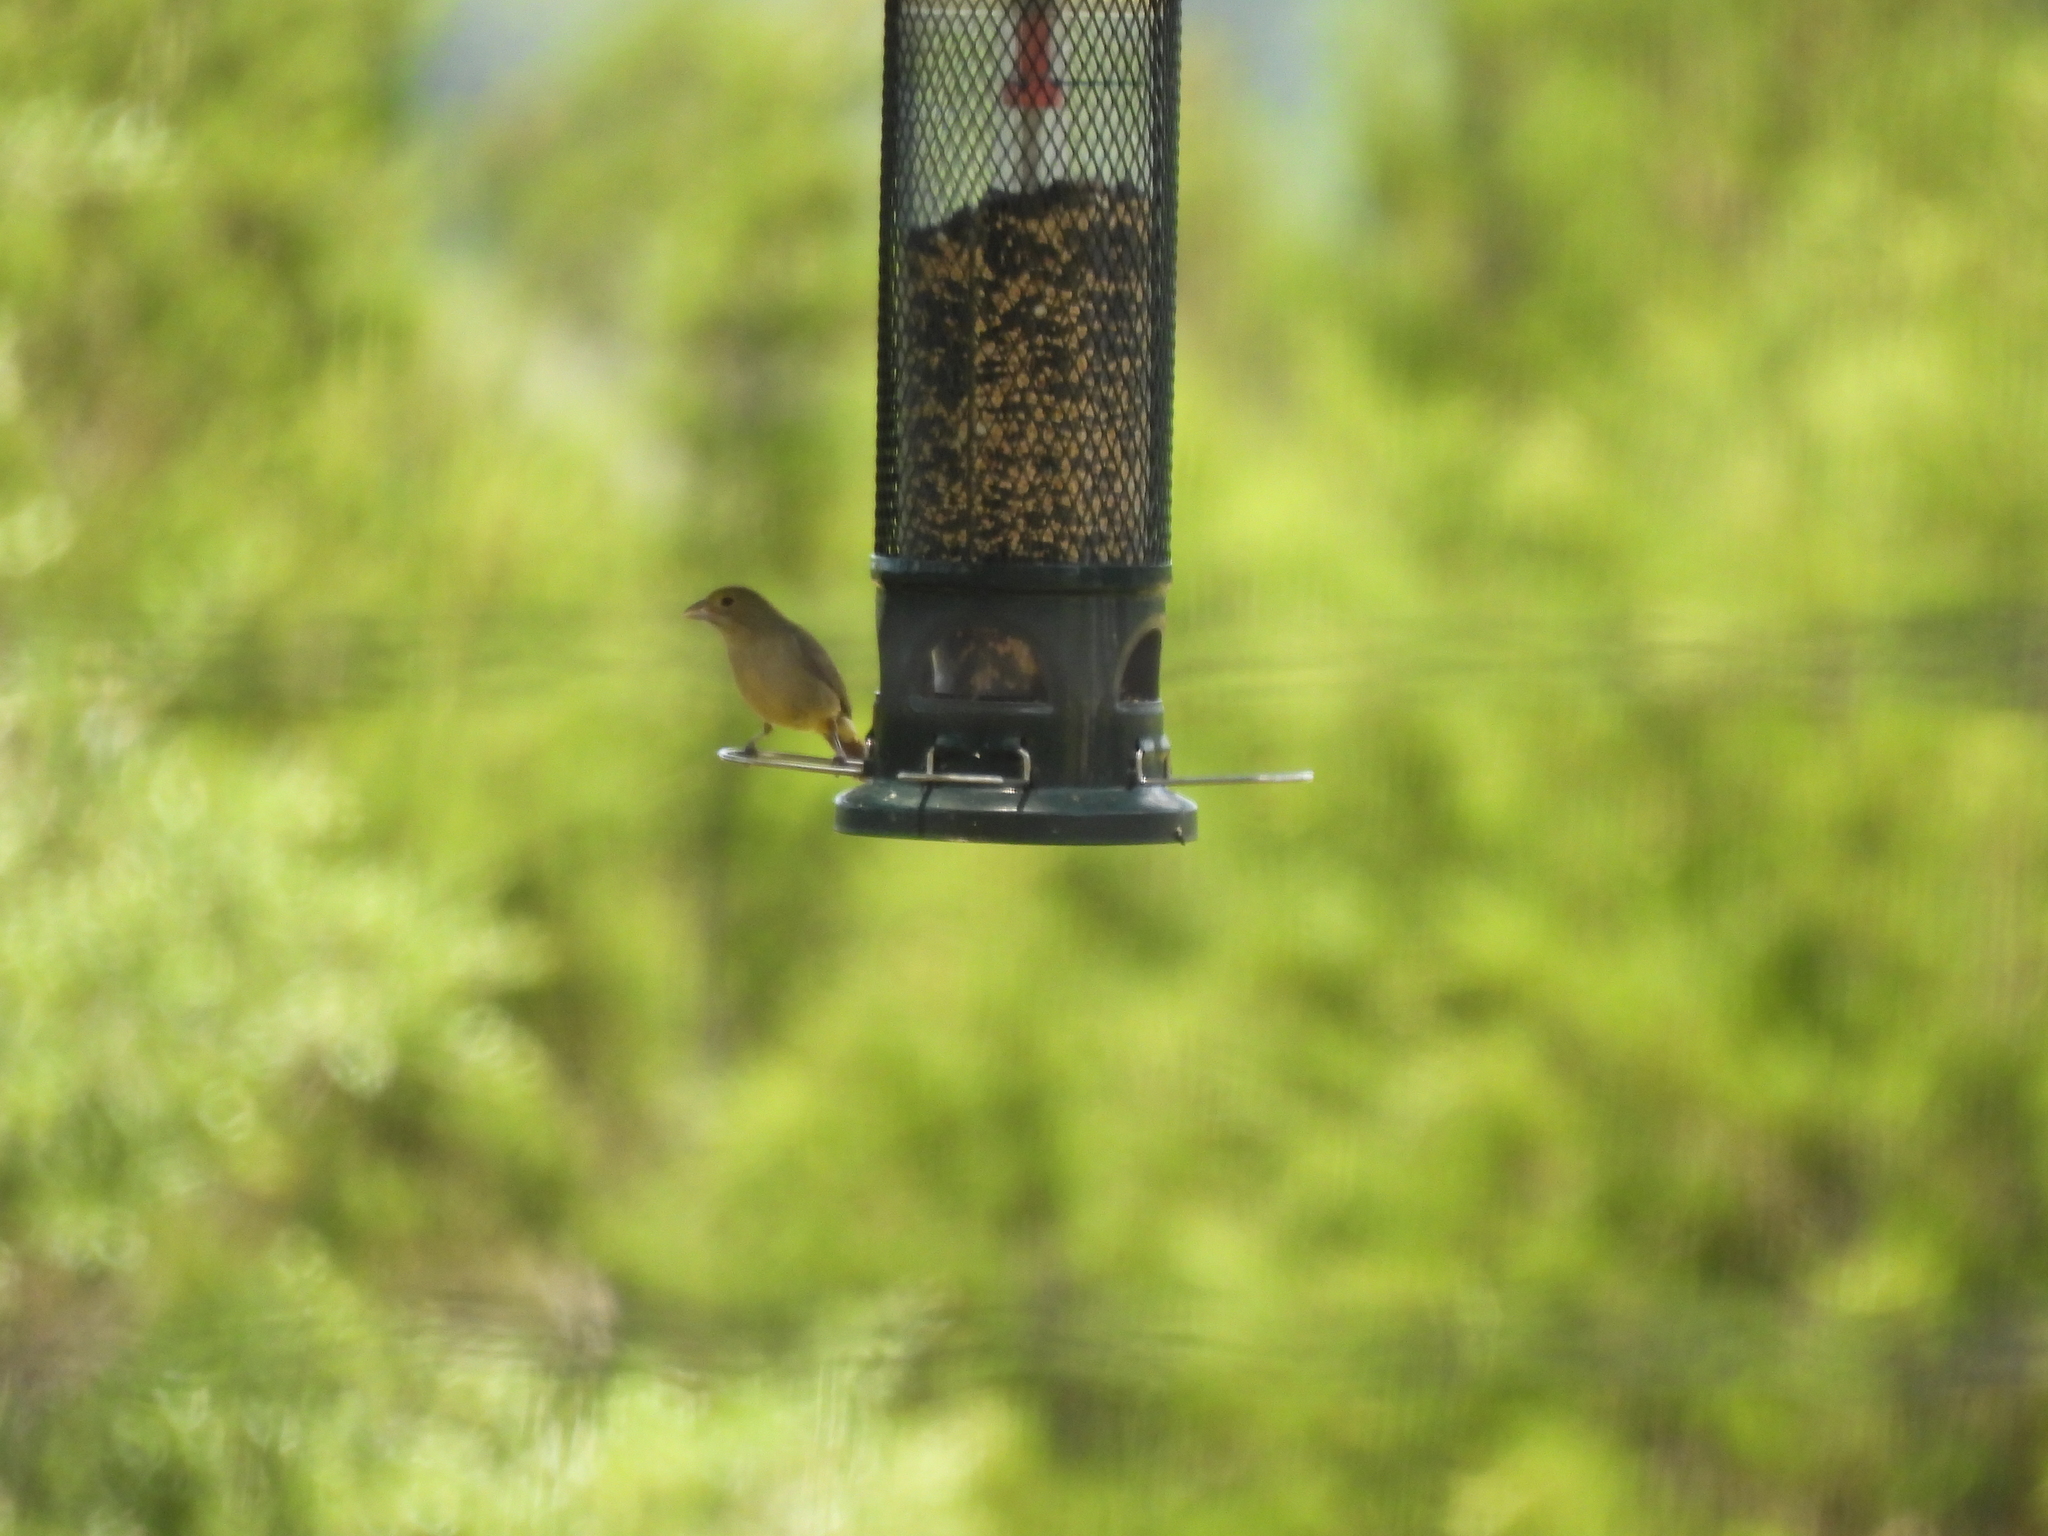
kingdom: Animalia
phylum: Chordata
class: Aves
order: Passeriformes
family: Cardinalidae
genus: Passerina
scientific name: Passerina ciris
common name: Painted bunting
